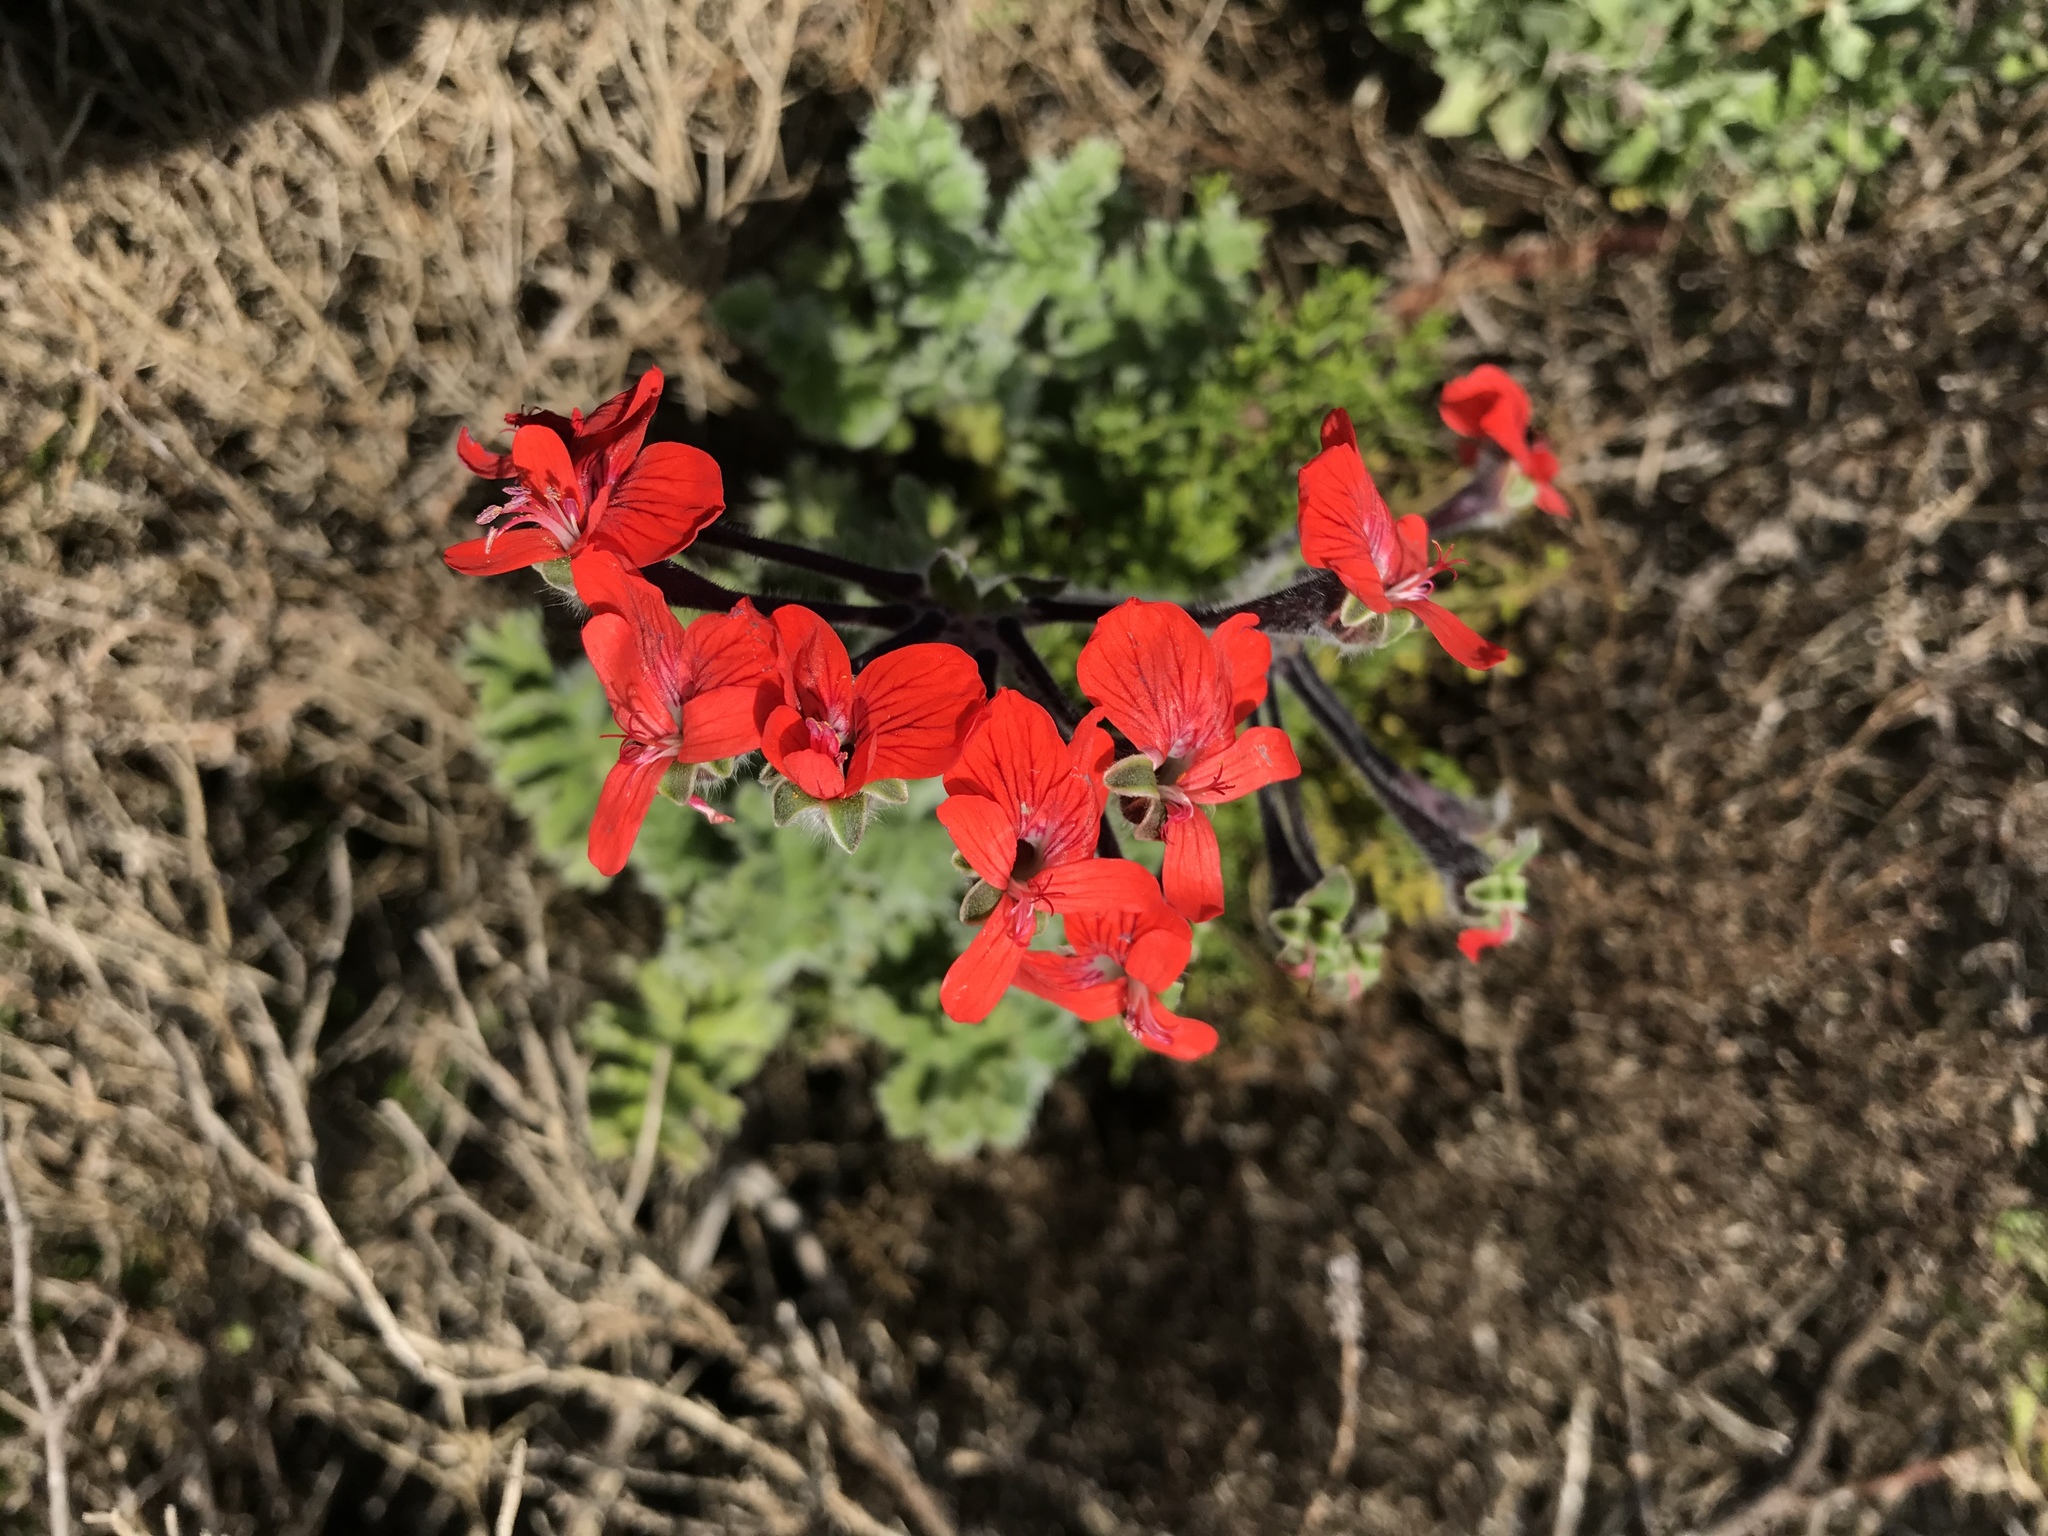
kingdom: Plantae
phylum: Tracheophyta
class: Magnoliopsida
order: Geraniales
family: Geraniaceae
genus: Pelargonium
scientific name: Pelargonium fulgidum
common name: Celandine-leaf pelargonium
